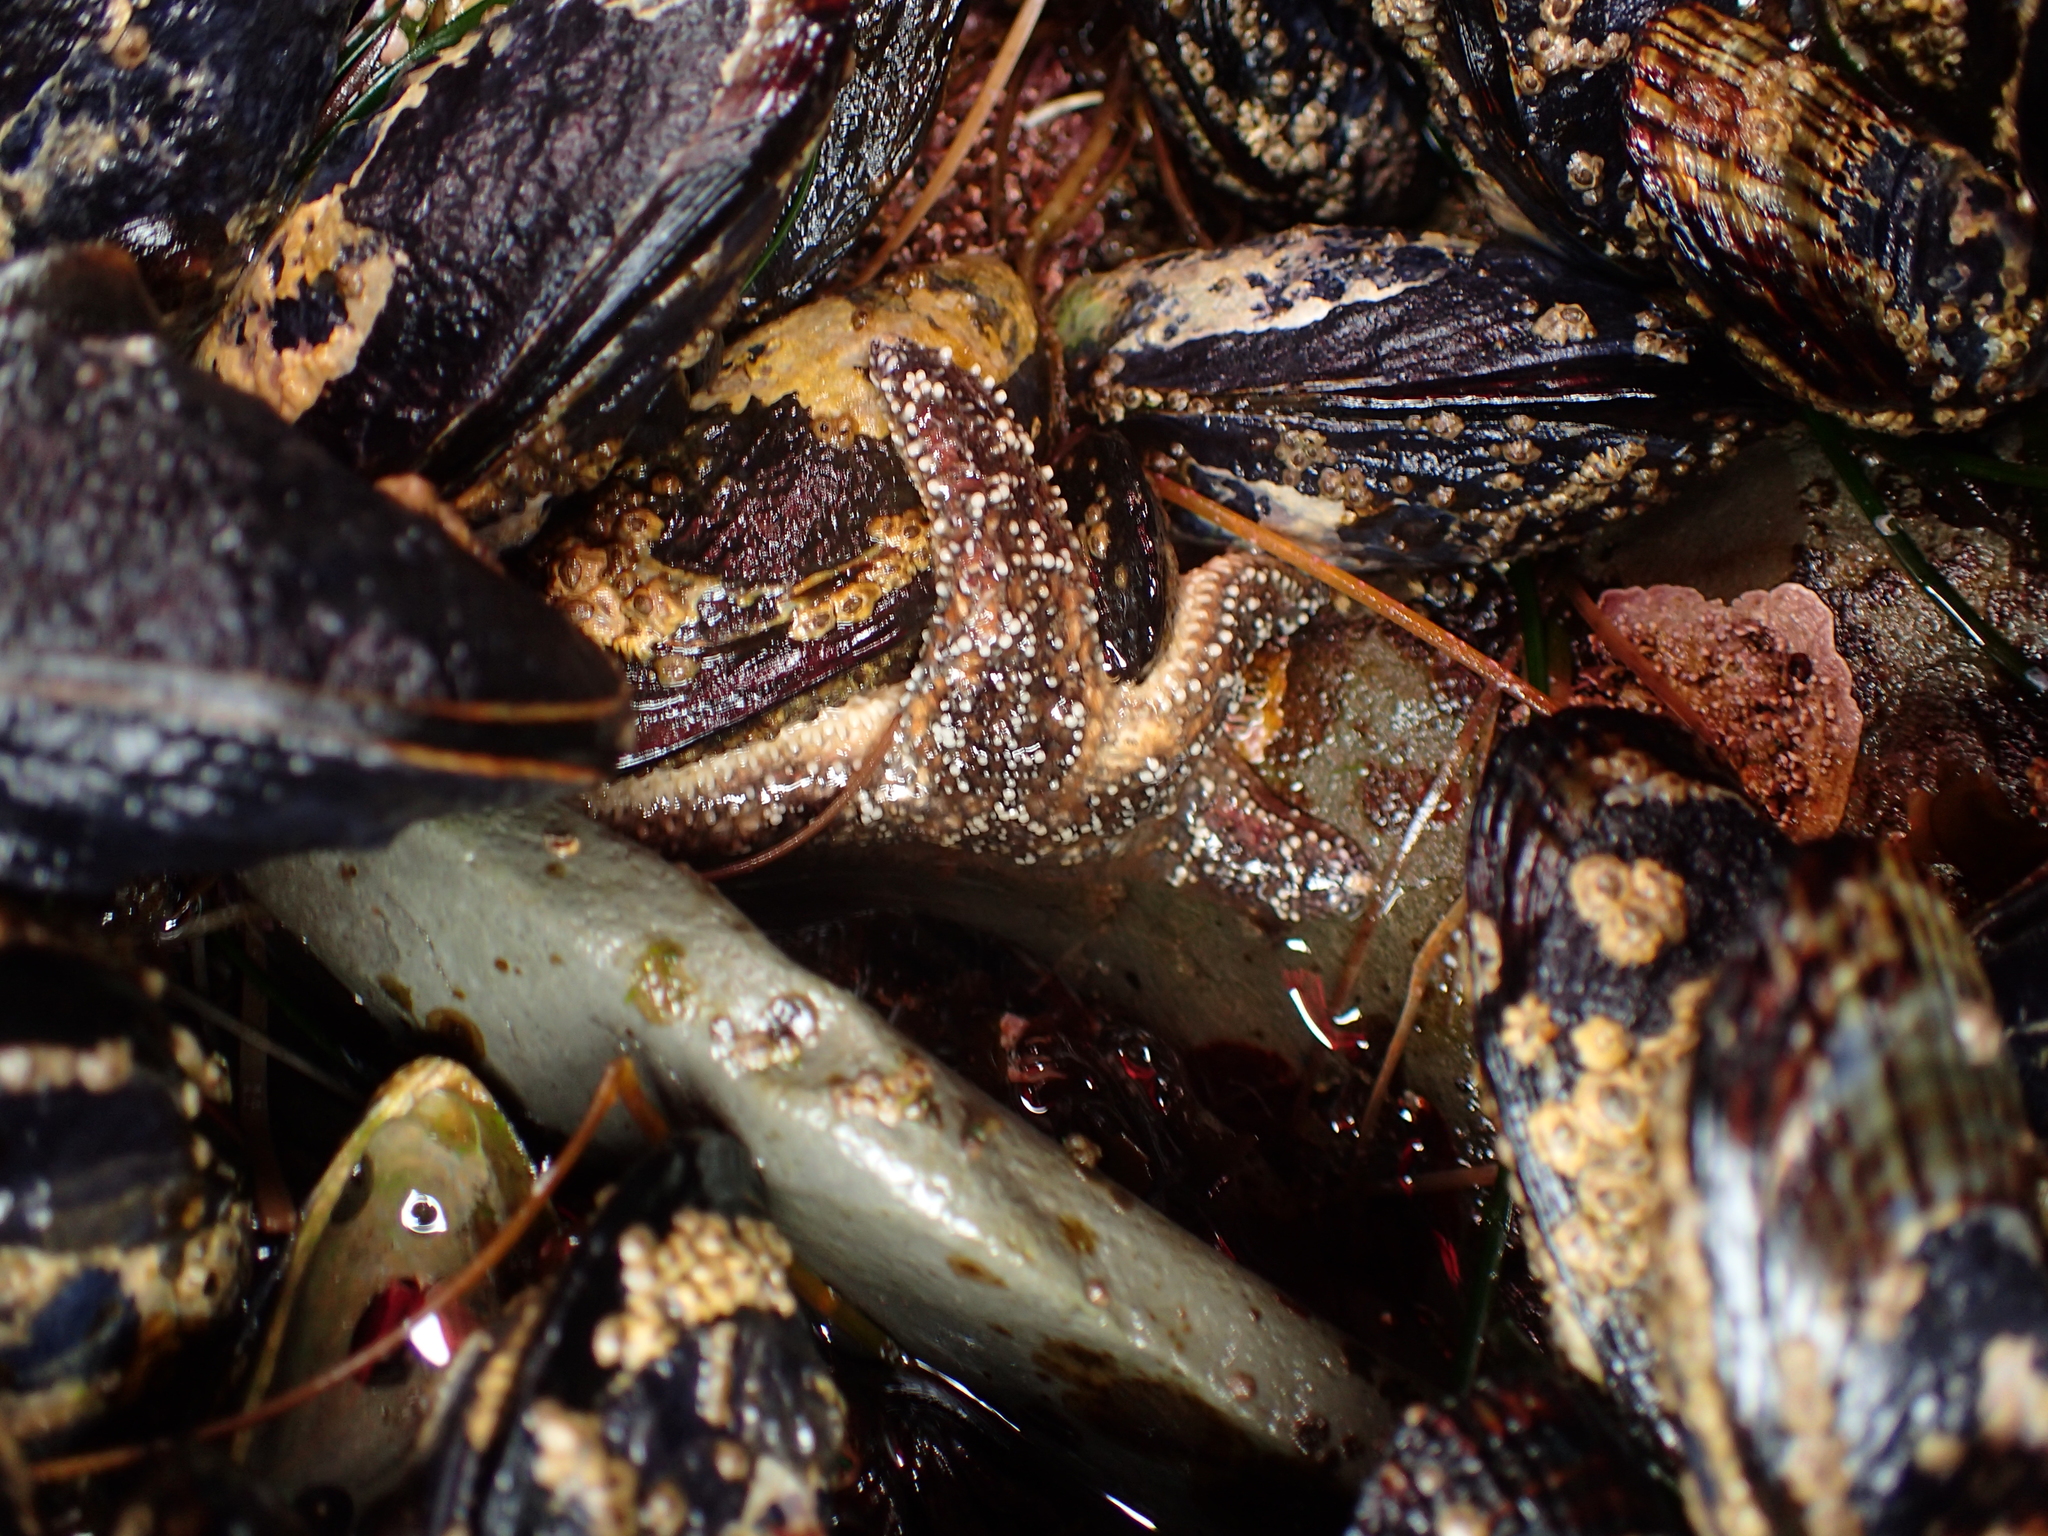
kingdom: Animalia
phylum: Echinodermata
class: Asteroidea
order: Forcipulatida
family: Asteriidae
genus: Pisaster
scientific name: Pisaster ochraceus
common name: Ochre stars
